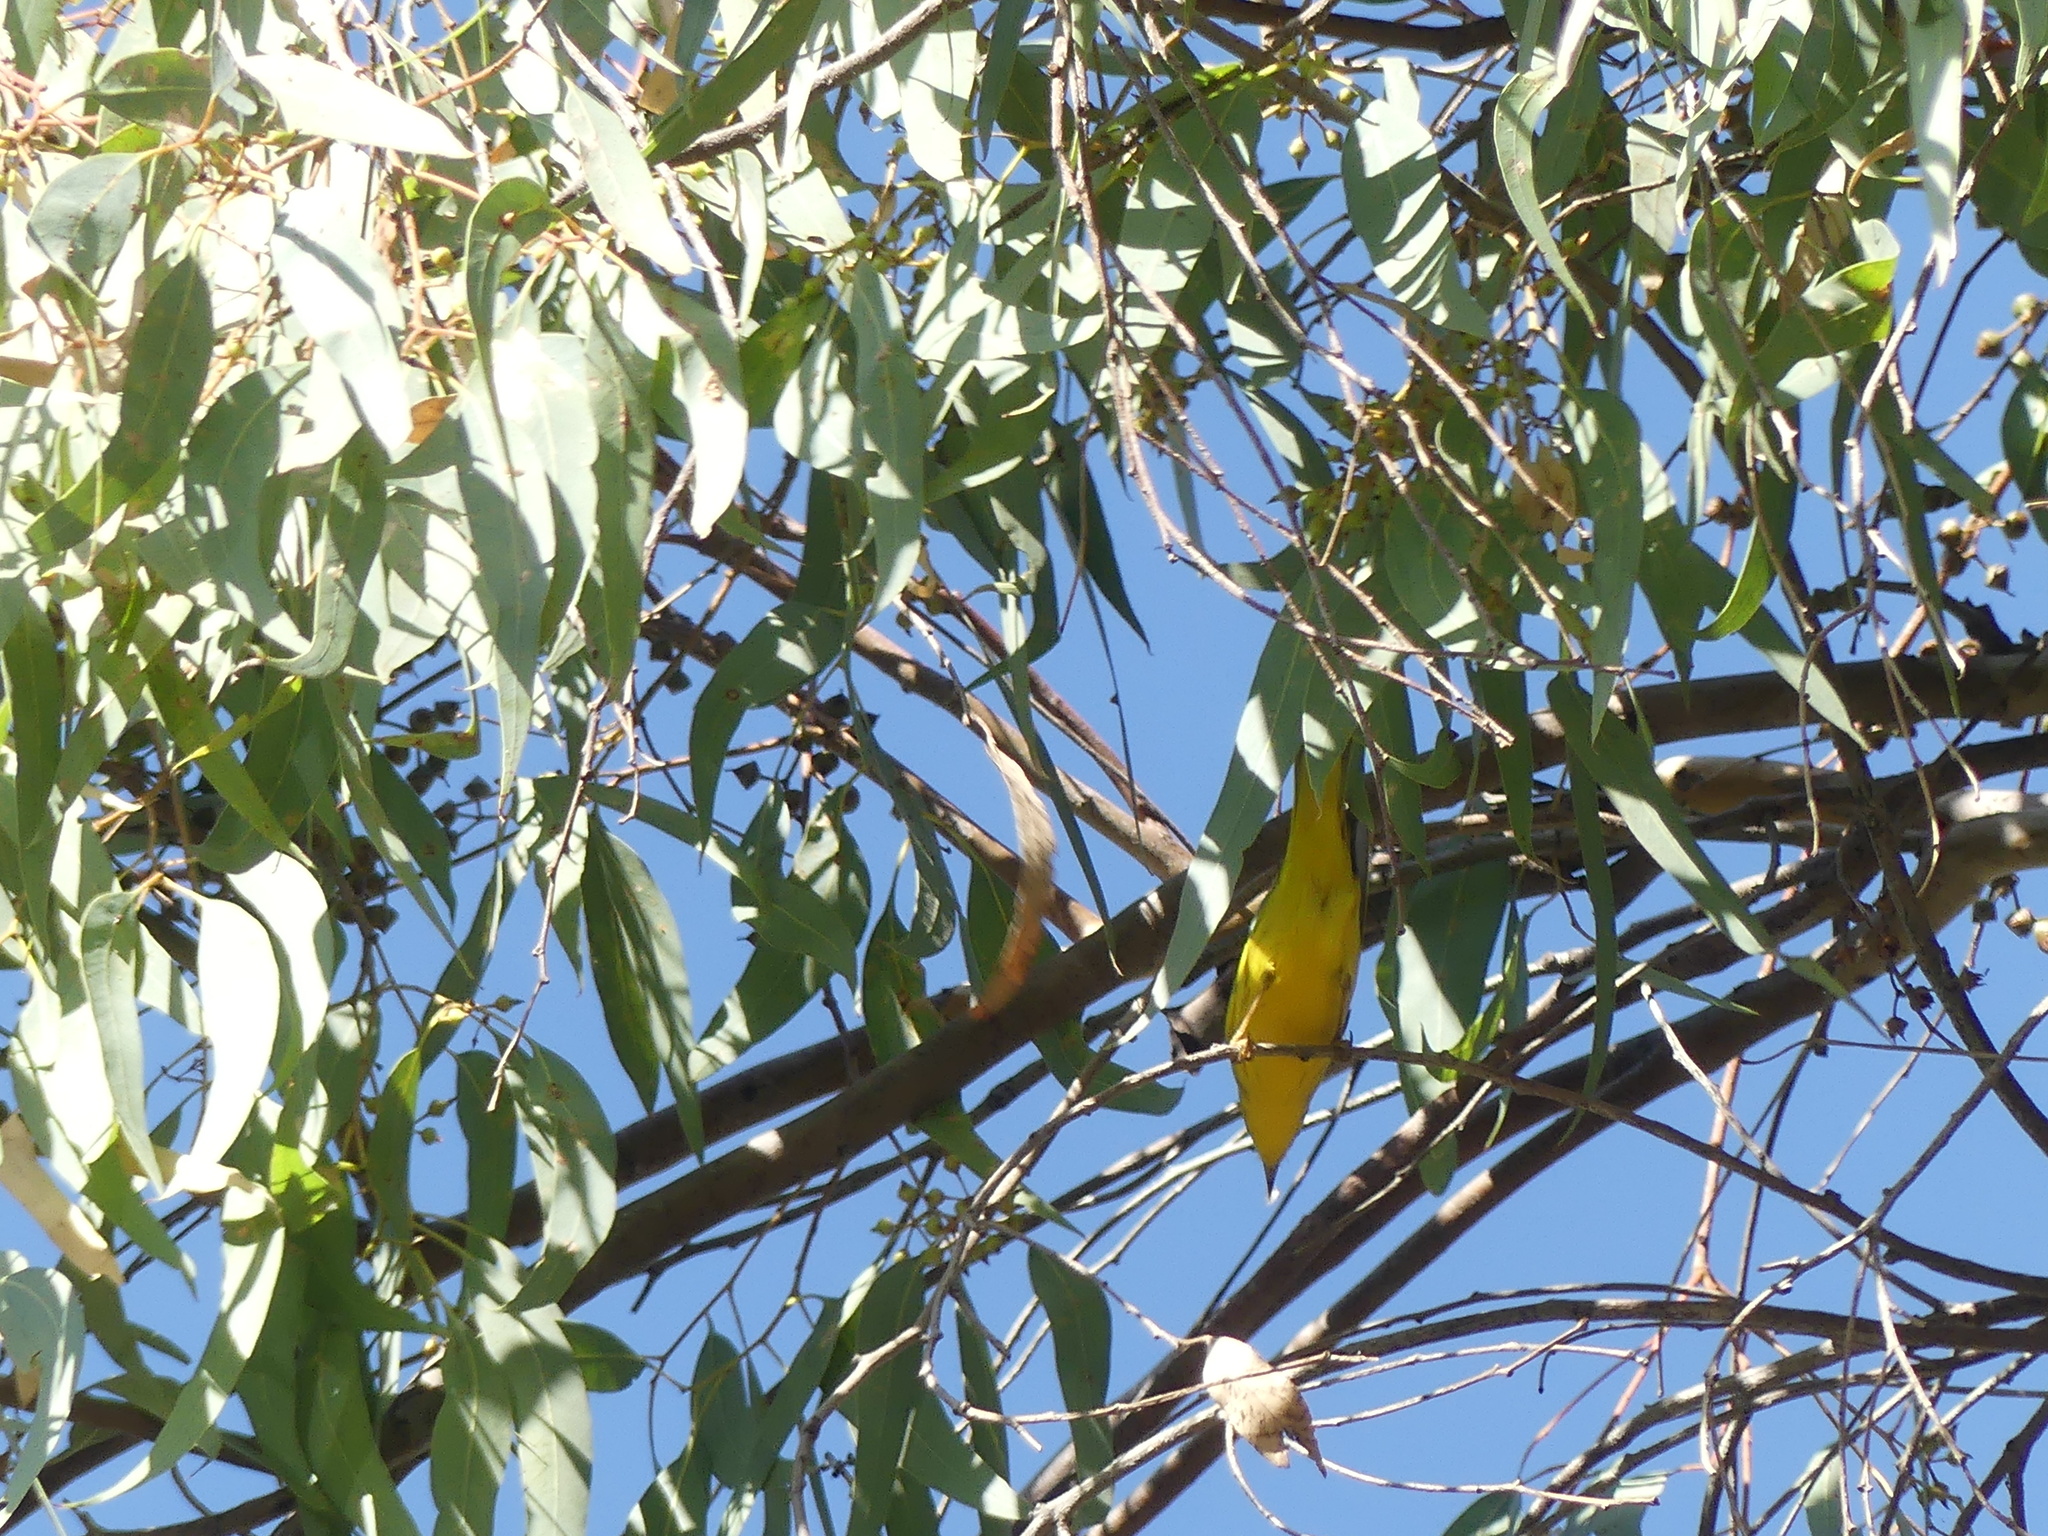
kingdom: Animalia
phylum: Chordata
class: Aves
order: Passeriformes
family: Parulidae
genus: Setophaga
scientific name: Setophaga petechia
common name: Yellow warbler
